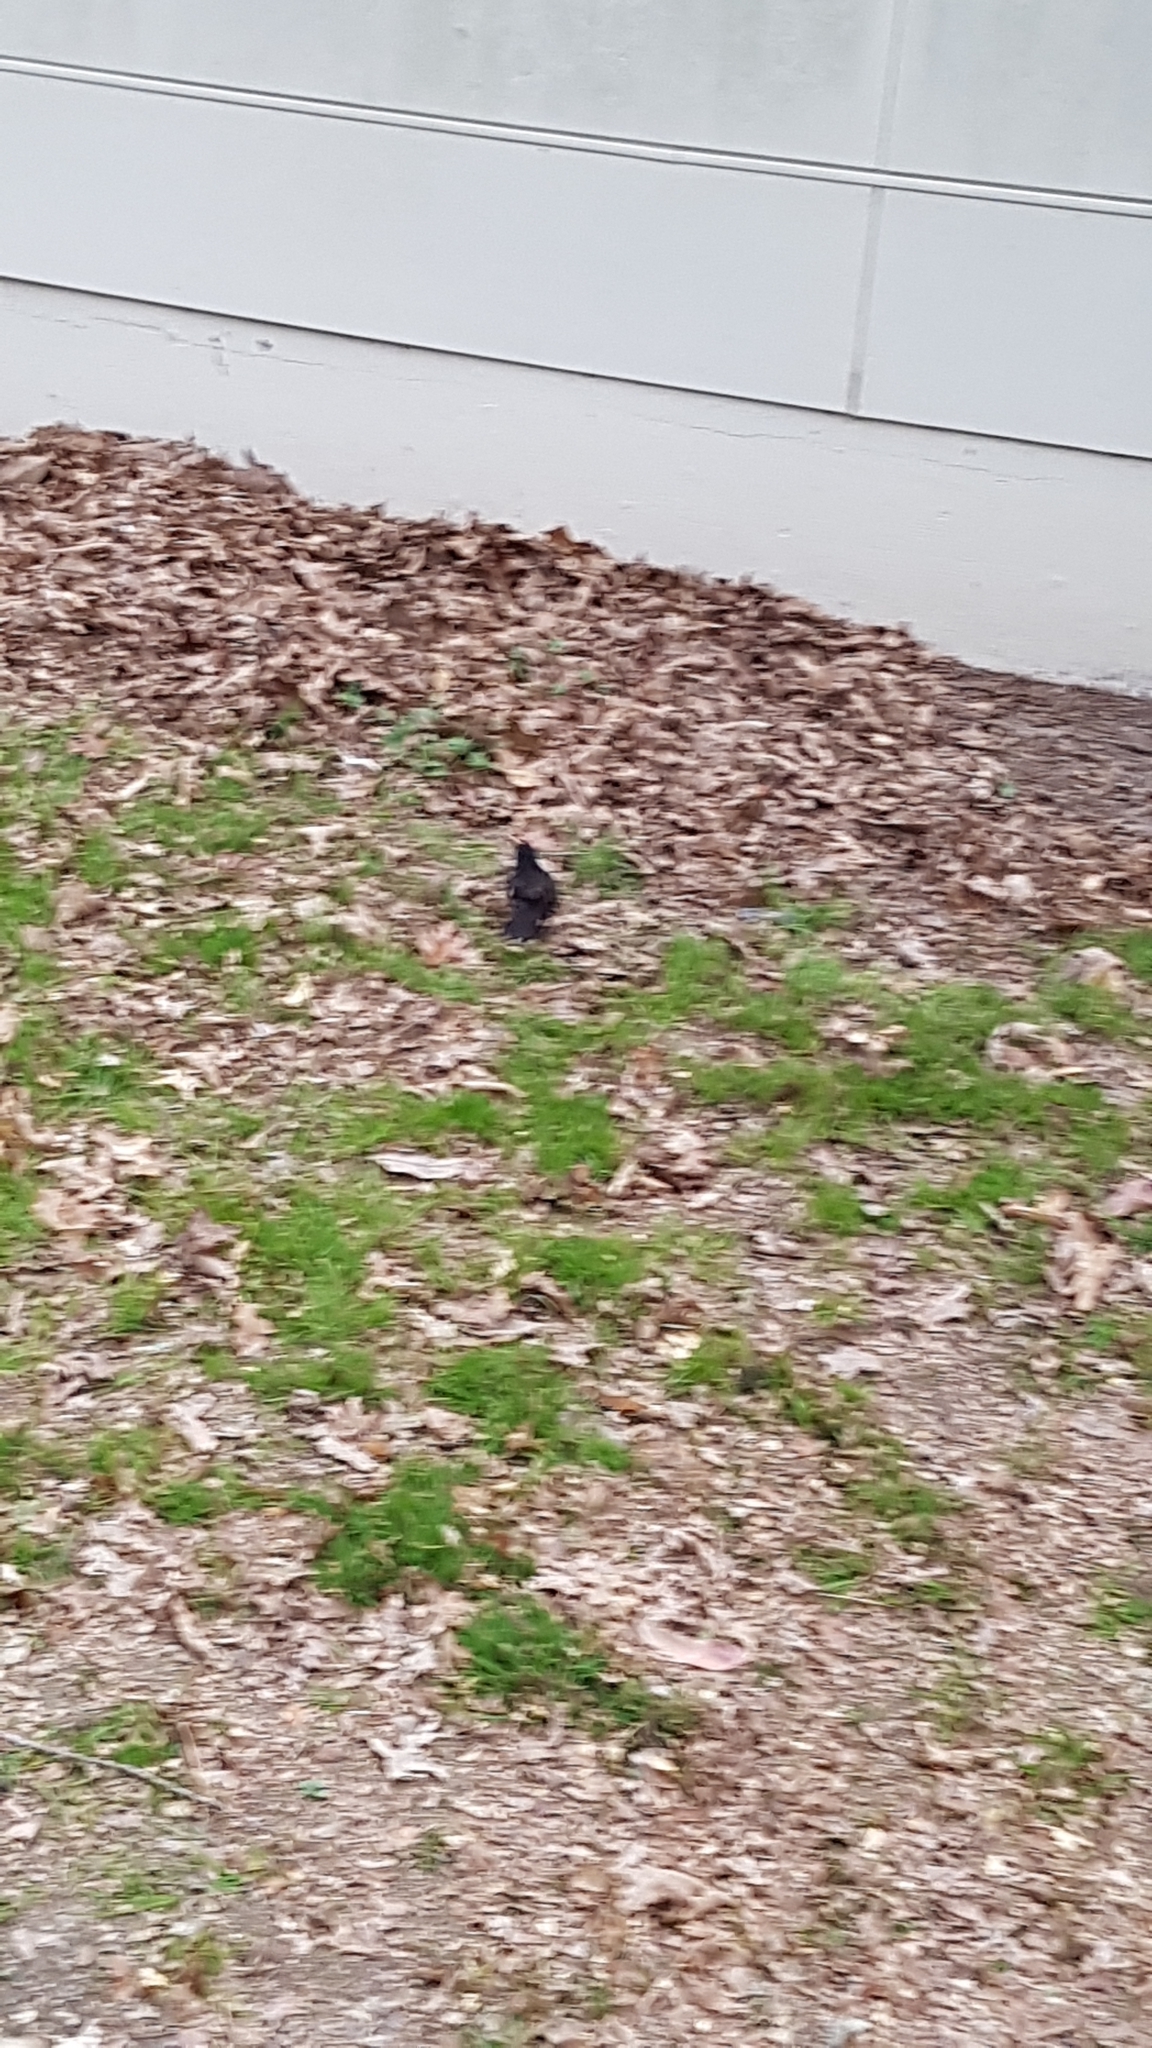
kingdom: Animalia
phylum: Chordata
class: Aves
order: Passeriformes
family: Turdidae
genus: Turdus
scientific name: Turdus merula
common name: Common blackbird
